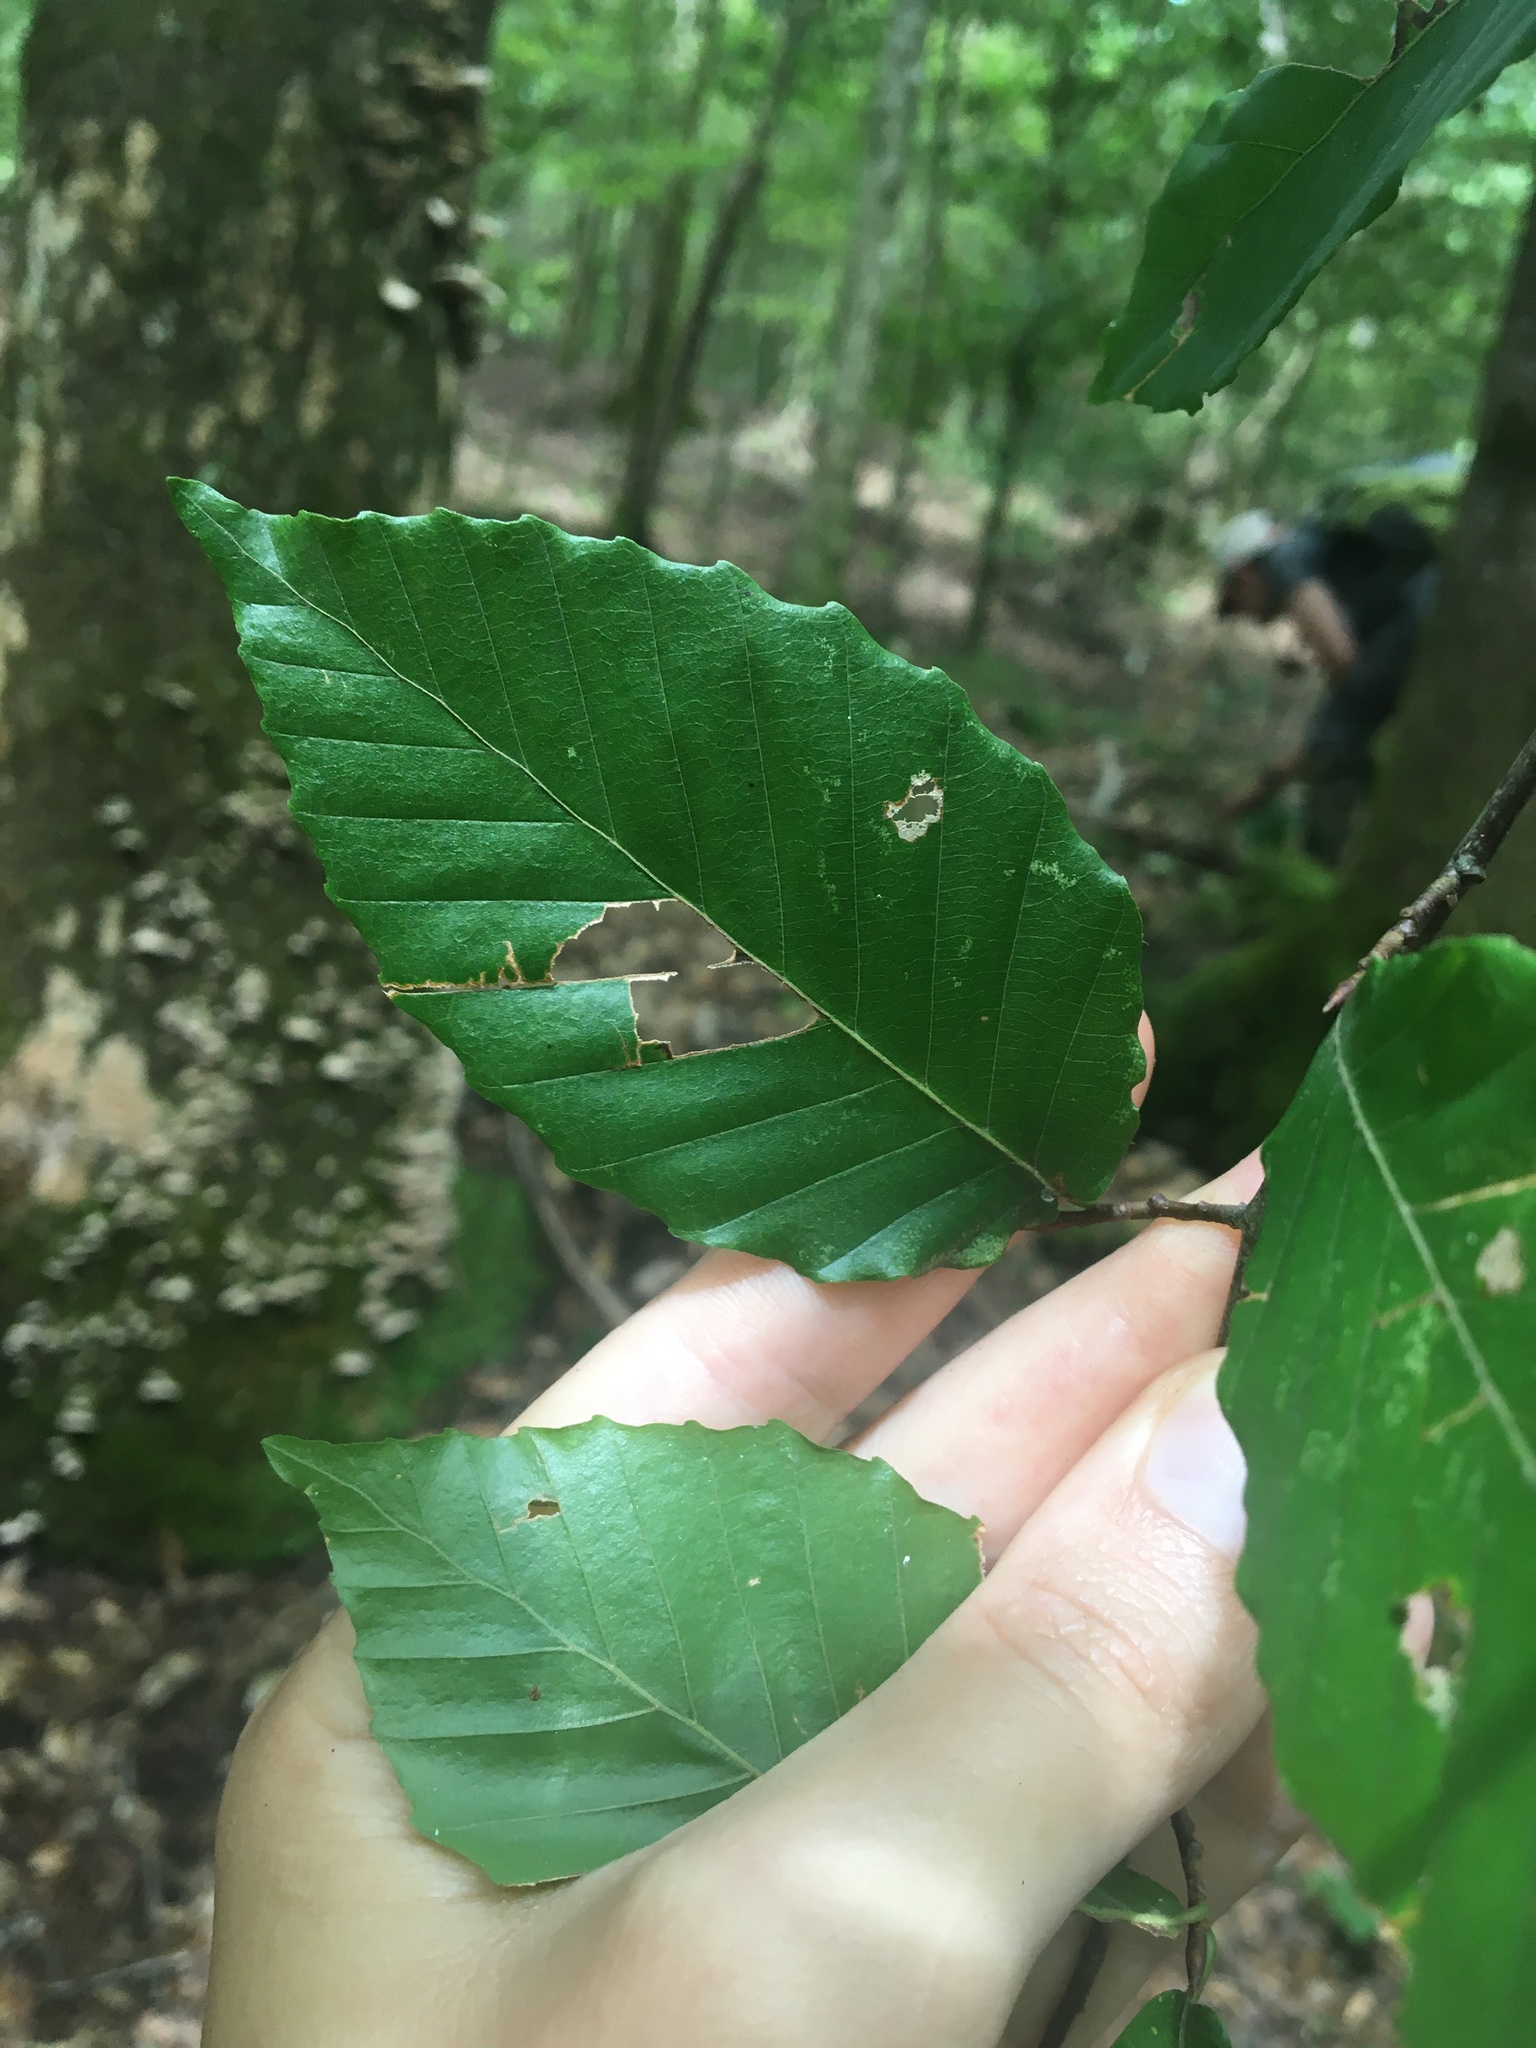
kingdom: Plantae
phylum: Tracheophyta
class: Magnoliopsida
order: Fagales
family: Fagaceae
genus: Fagus
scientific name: Fagus grandifolia
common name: American beech
